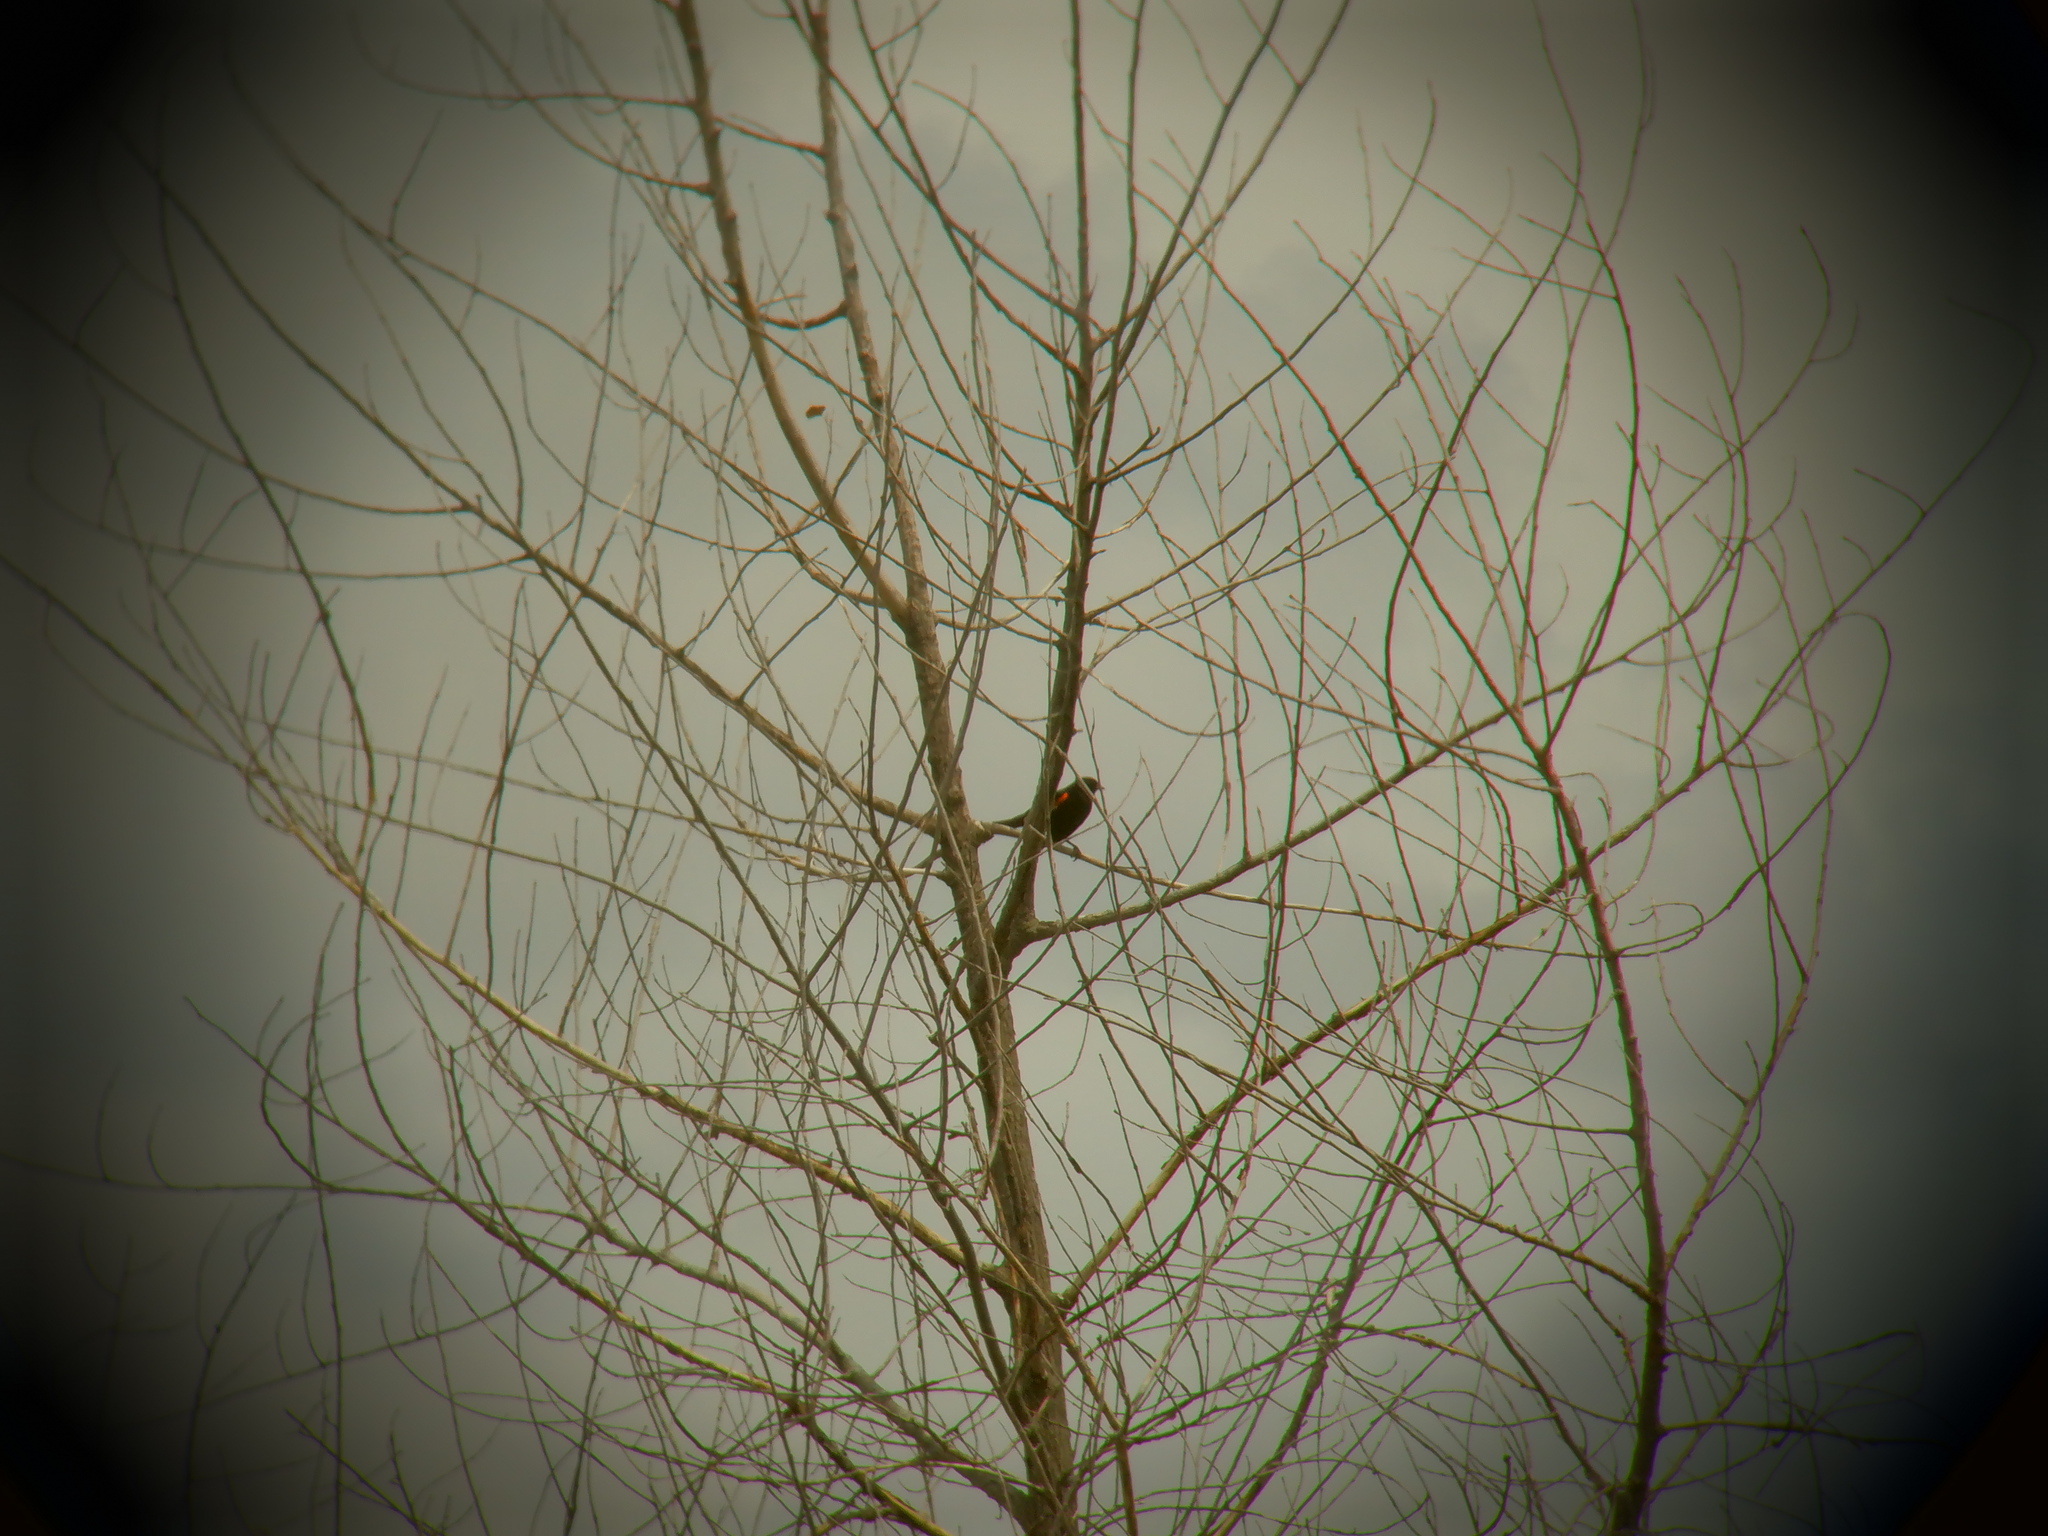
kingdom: Animalia
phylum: Chordata
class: Aves
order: Passeriformes
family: Icteridae
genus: Agelaius
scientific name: Agelaius phoeniceus
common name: Red-winged blackbird
